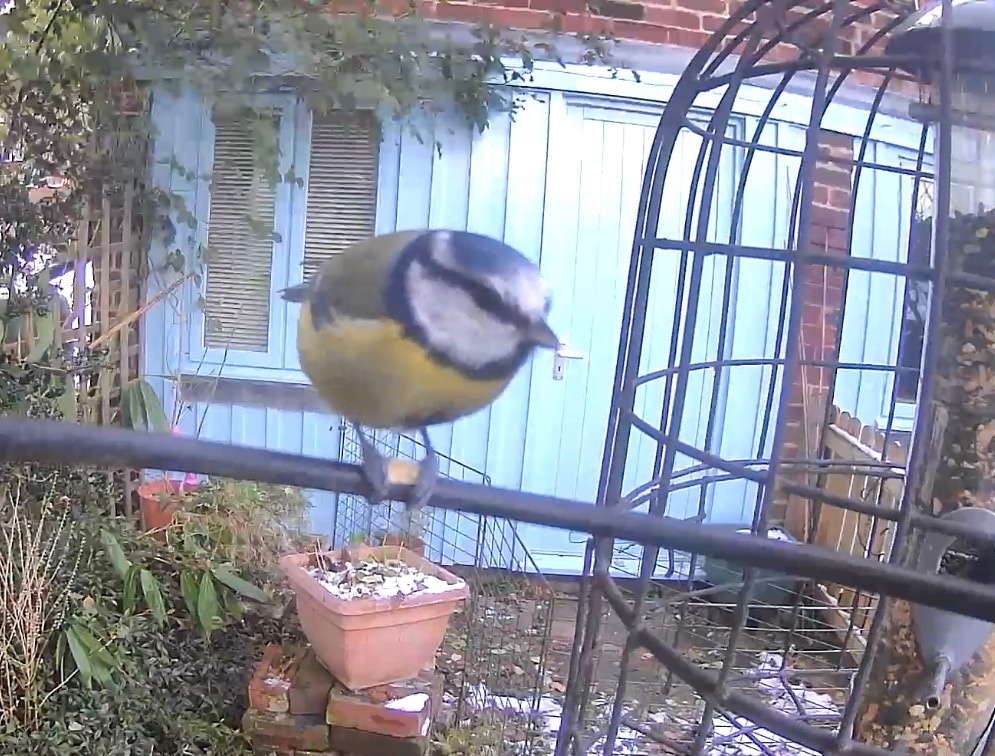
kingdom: Animalia
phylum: Chordata
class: Aves
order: Passeriformes
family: Paridae
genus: Cyanistes
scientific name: Cyanistes caeruleus
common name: Eurasian blue tit
